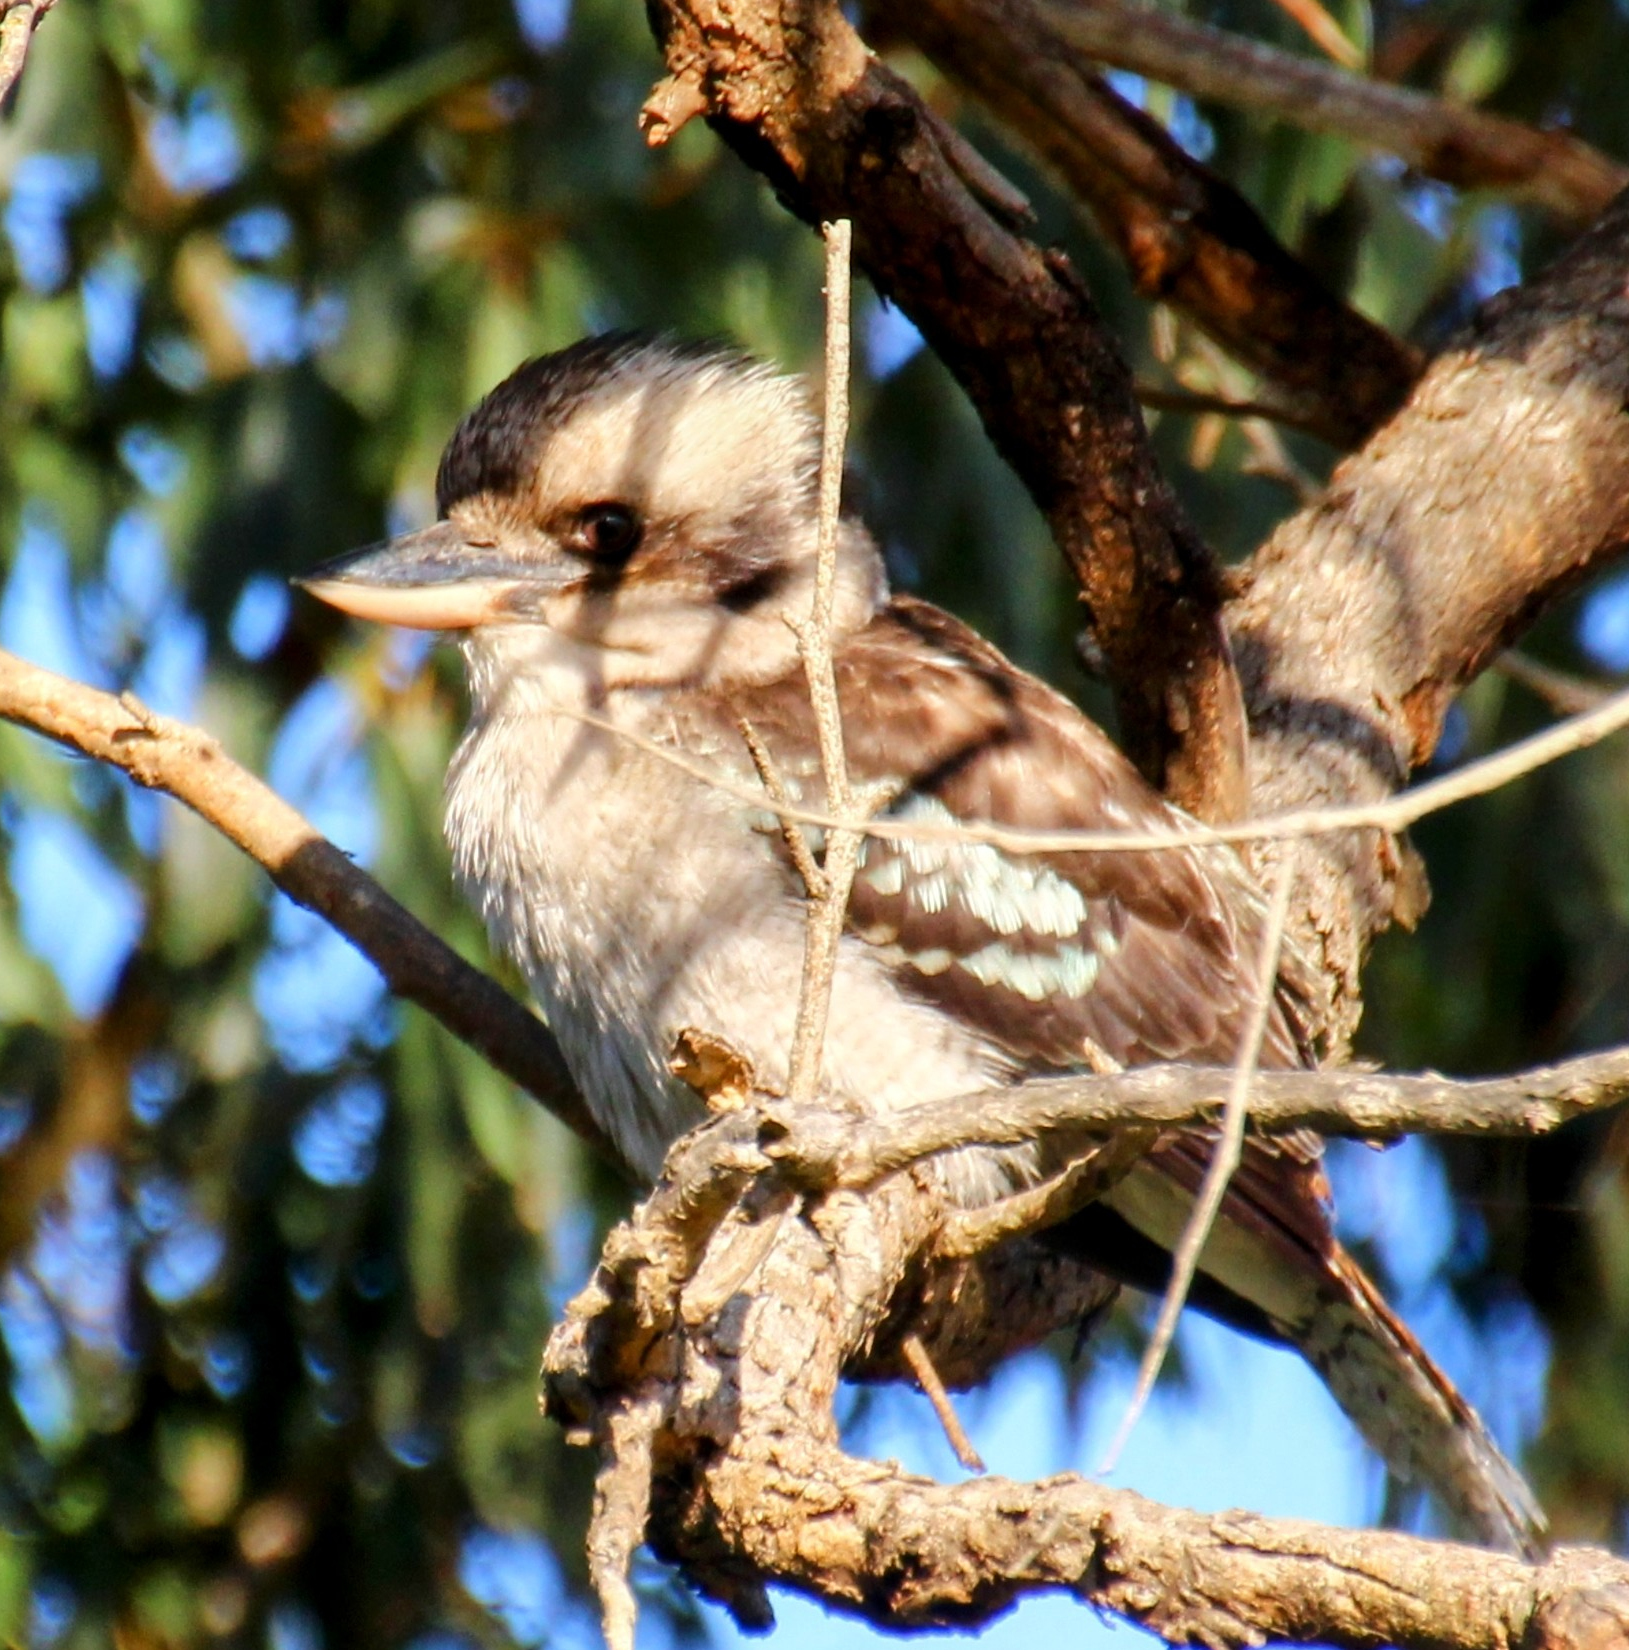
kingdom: Animalia
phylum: Chordata
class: Aves
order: Coraciiformes
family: Alcedinidae
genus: Dacelo
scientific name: Dacelo novaeguineae
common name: Laughing kookaburra
